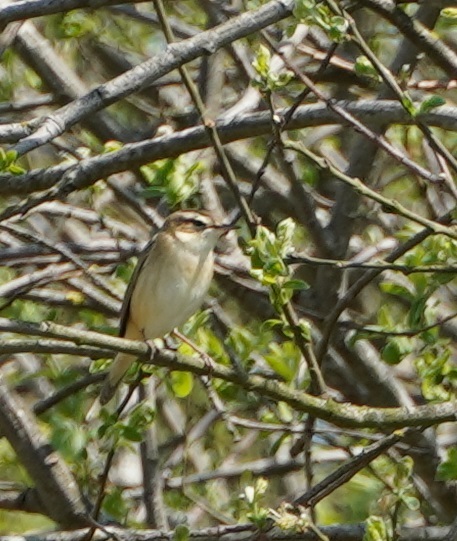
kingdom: Animalia
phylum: Chordata
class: Aves
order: Passeriformes
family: Acrocephalidae
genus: Acrocephalus
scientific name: Acrocephalus schoenobaenus
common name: Sedge warbler
